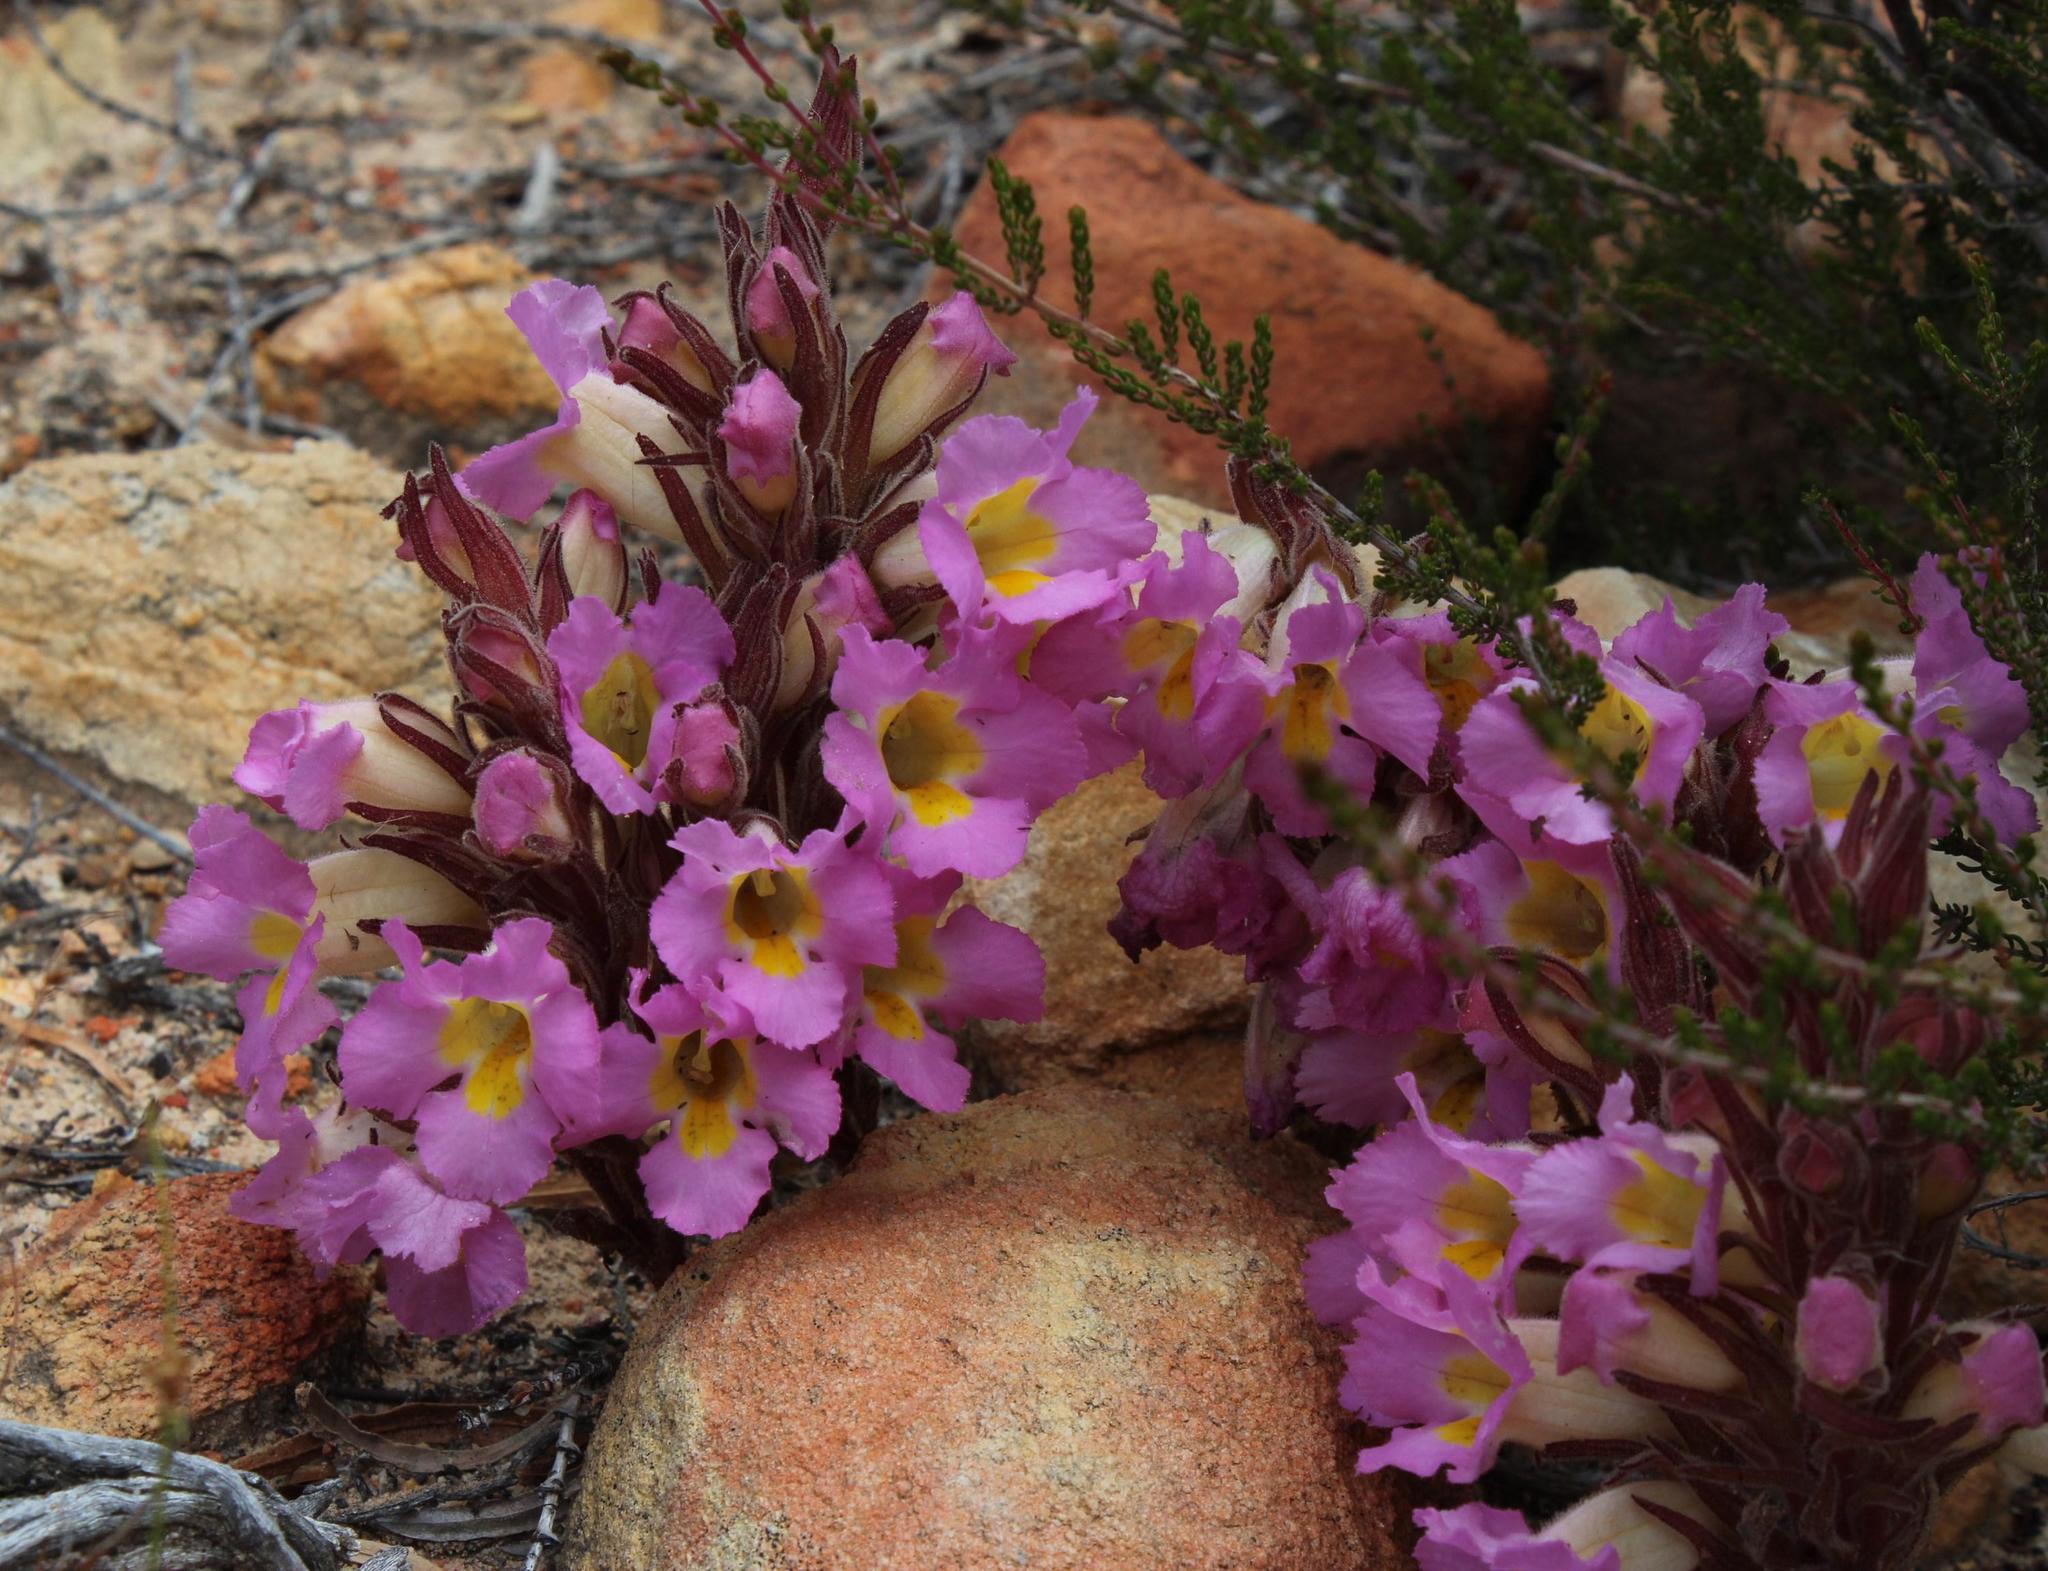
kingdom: Plantae
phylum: Tracheophyta
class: Magnoliopsida
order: Lamiales
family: Orobanchaceae
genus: Harveya
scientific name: Harveya purpurea
